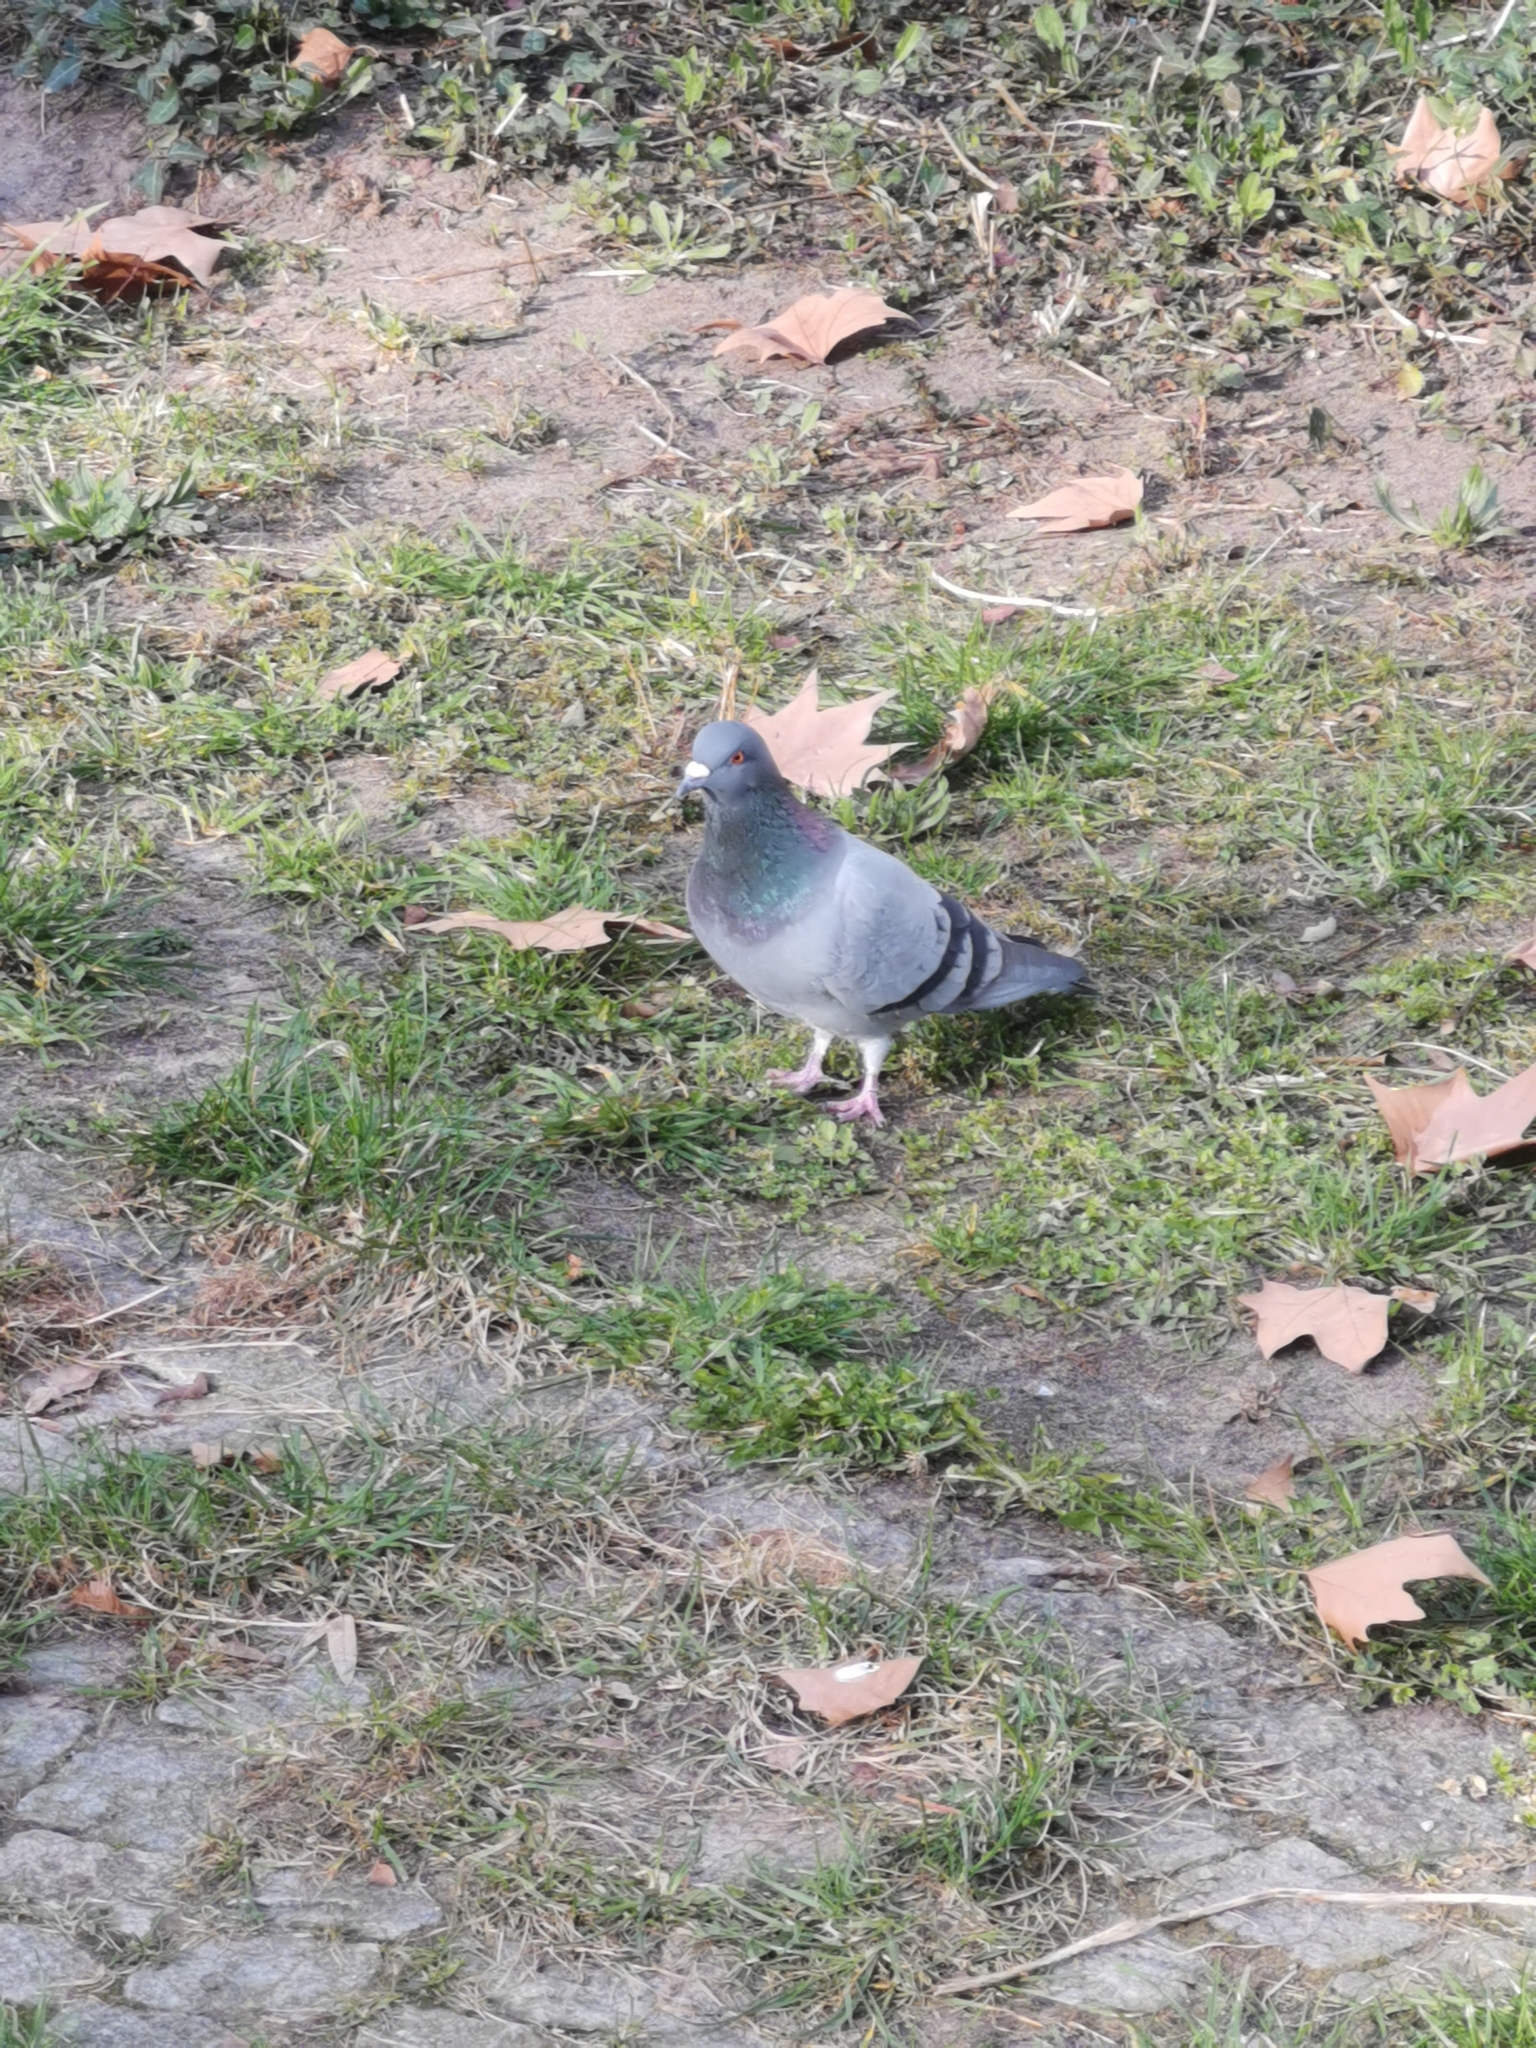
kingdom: Animalia
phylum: Chordata
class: Aves
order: Columbiformes
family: Columbidae
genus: Columba
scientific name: Columba livia
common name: Rock pigeon
